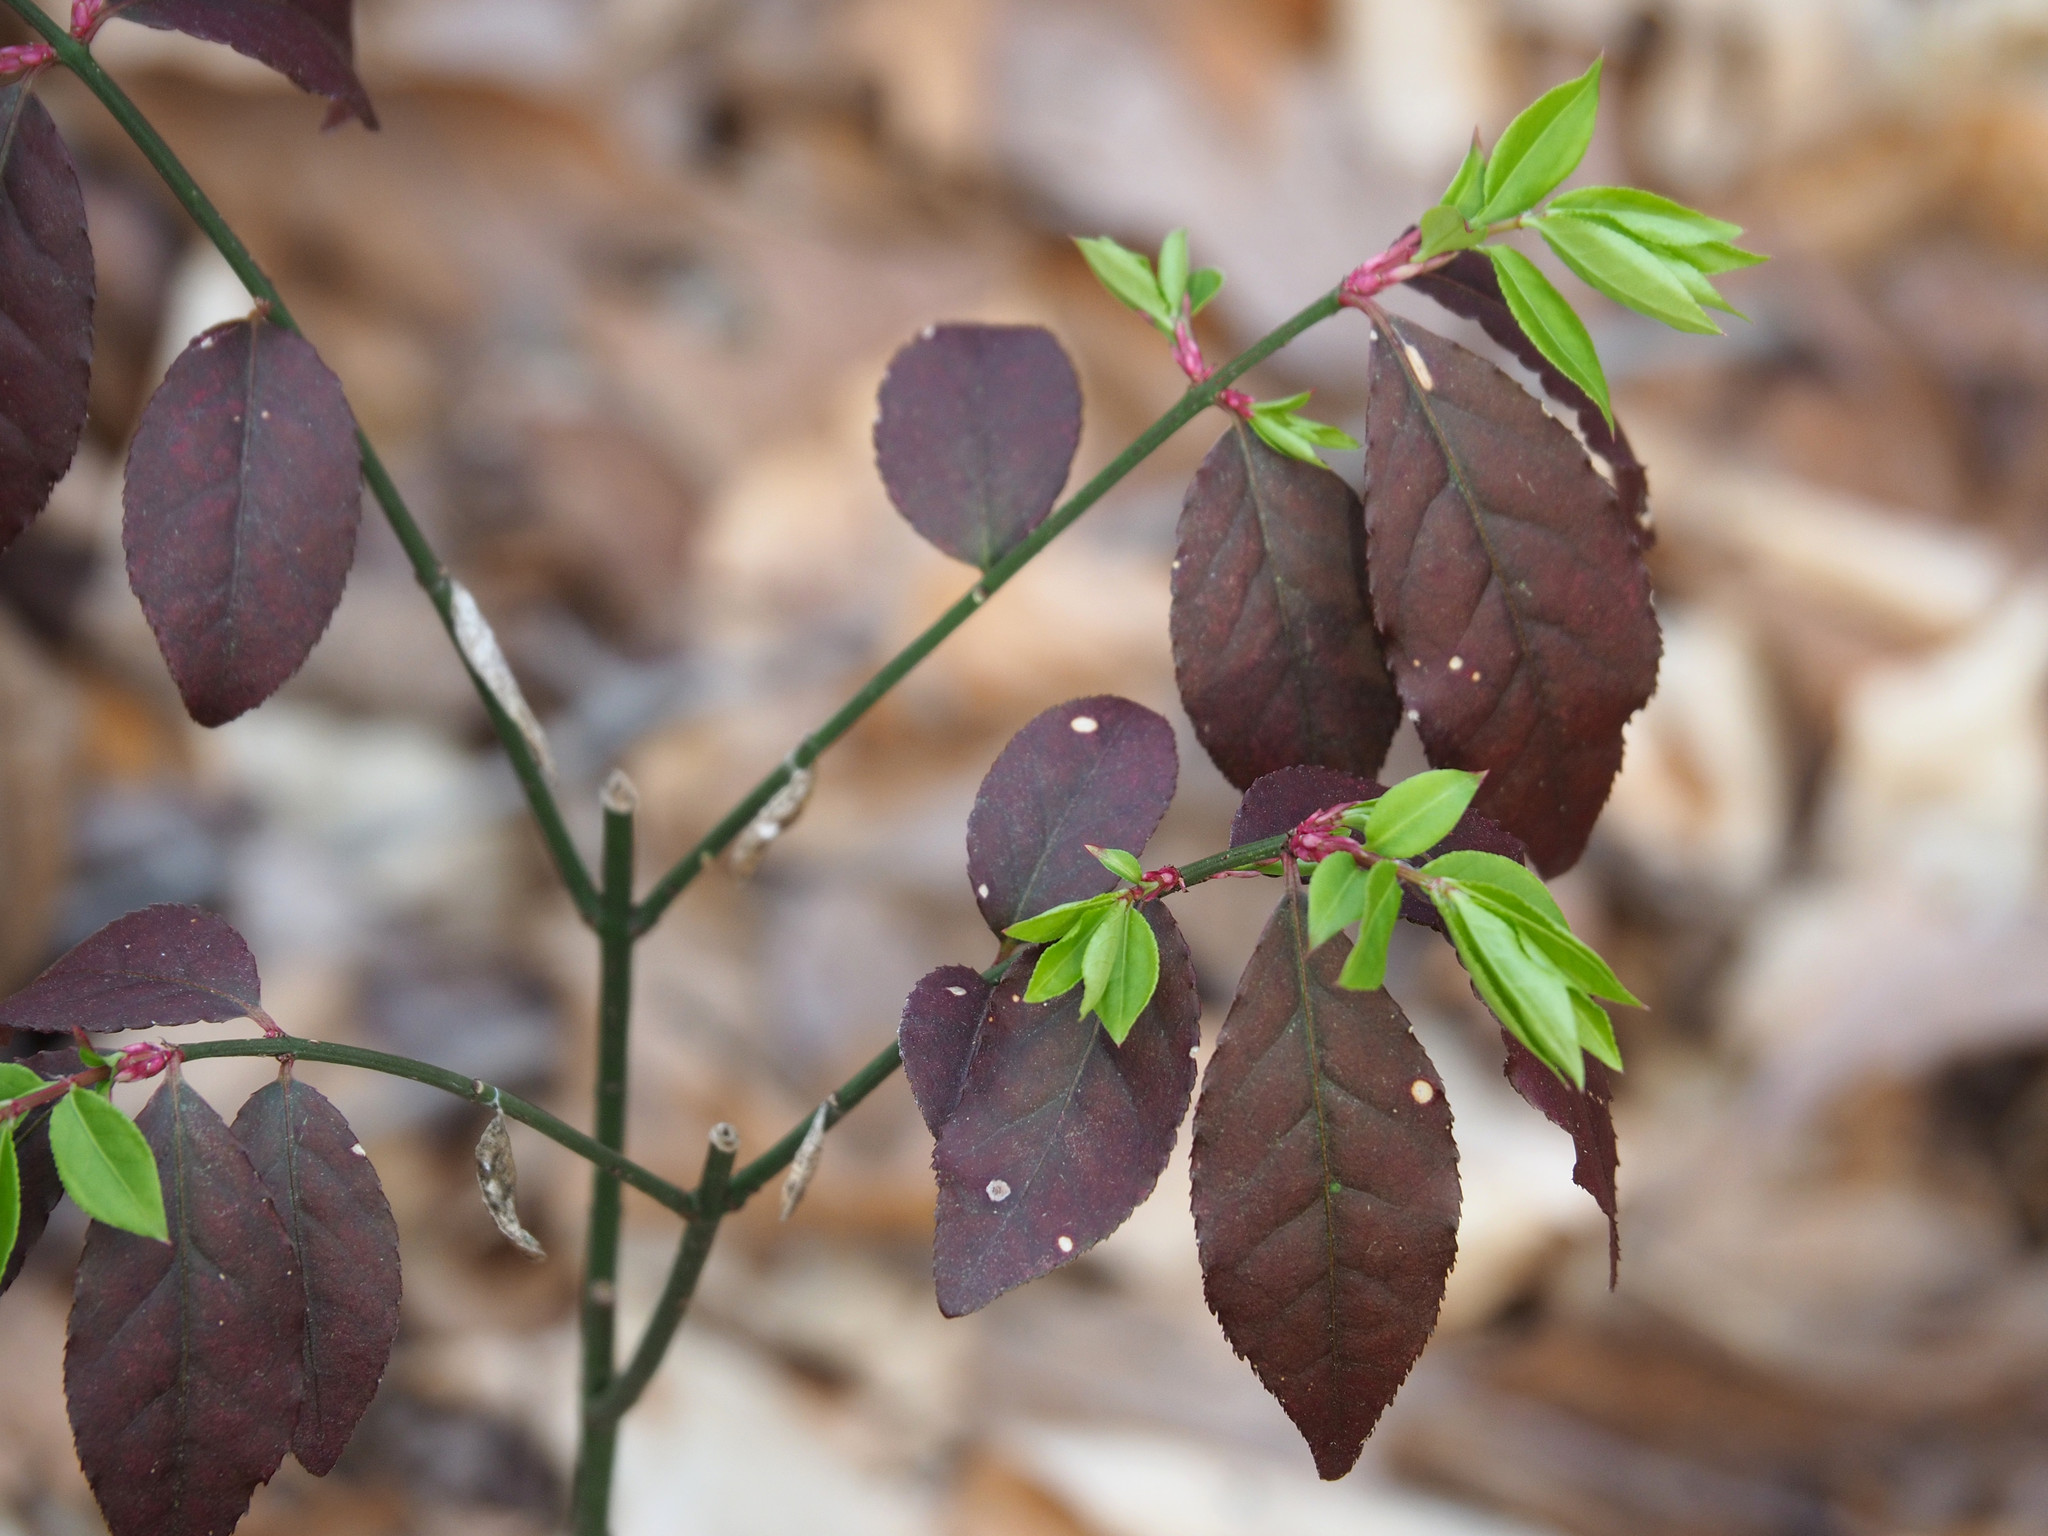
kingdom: Plantae
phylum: Tracheophyta
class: Magnoliopsida
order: Celastrales
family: Celastraceae
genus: Euonymus
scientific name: Euonymus alatus
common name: Winged euonymus
